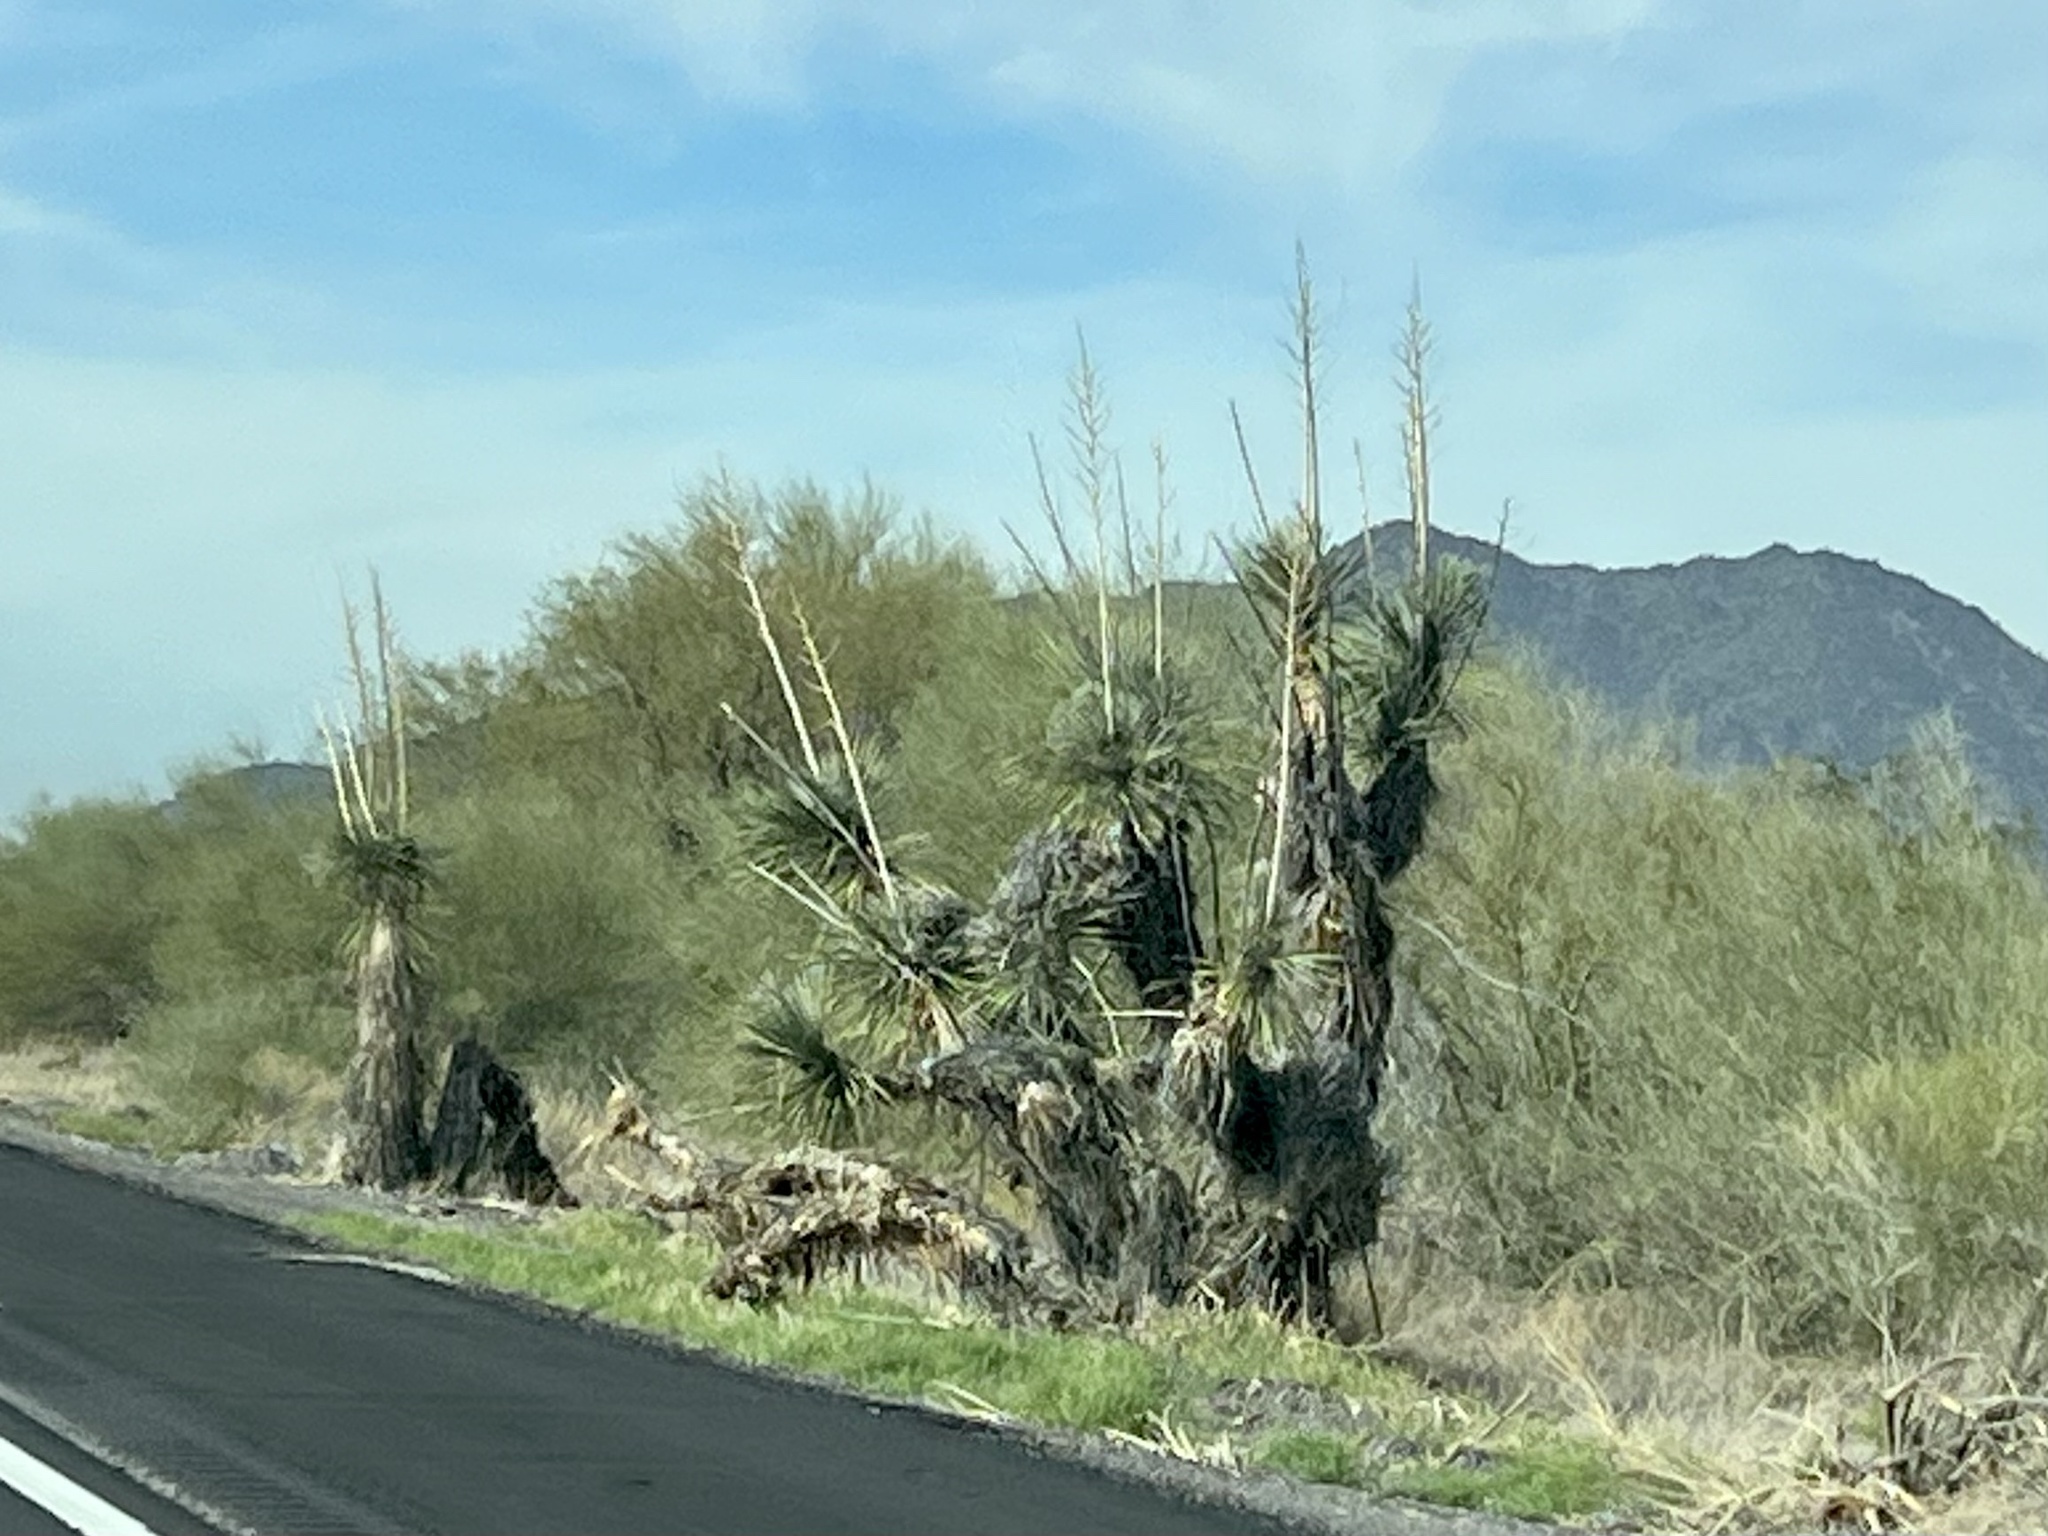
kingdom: Plantae
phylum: Tracheophyta
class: Liliopsida
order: Asparagales
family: Asparagaceae
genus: Yucca
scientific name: Yucca elata
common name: Palmella
